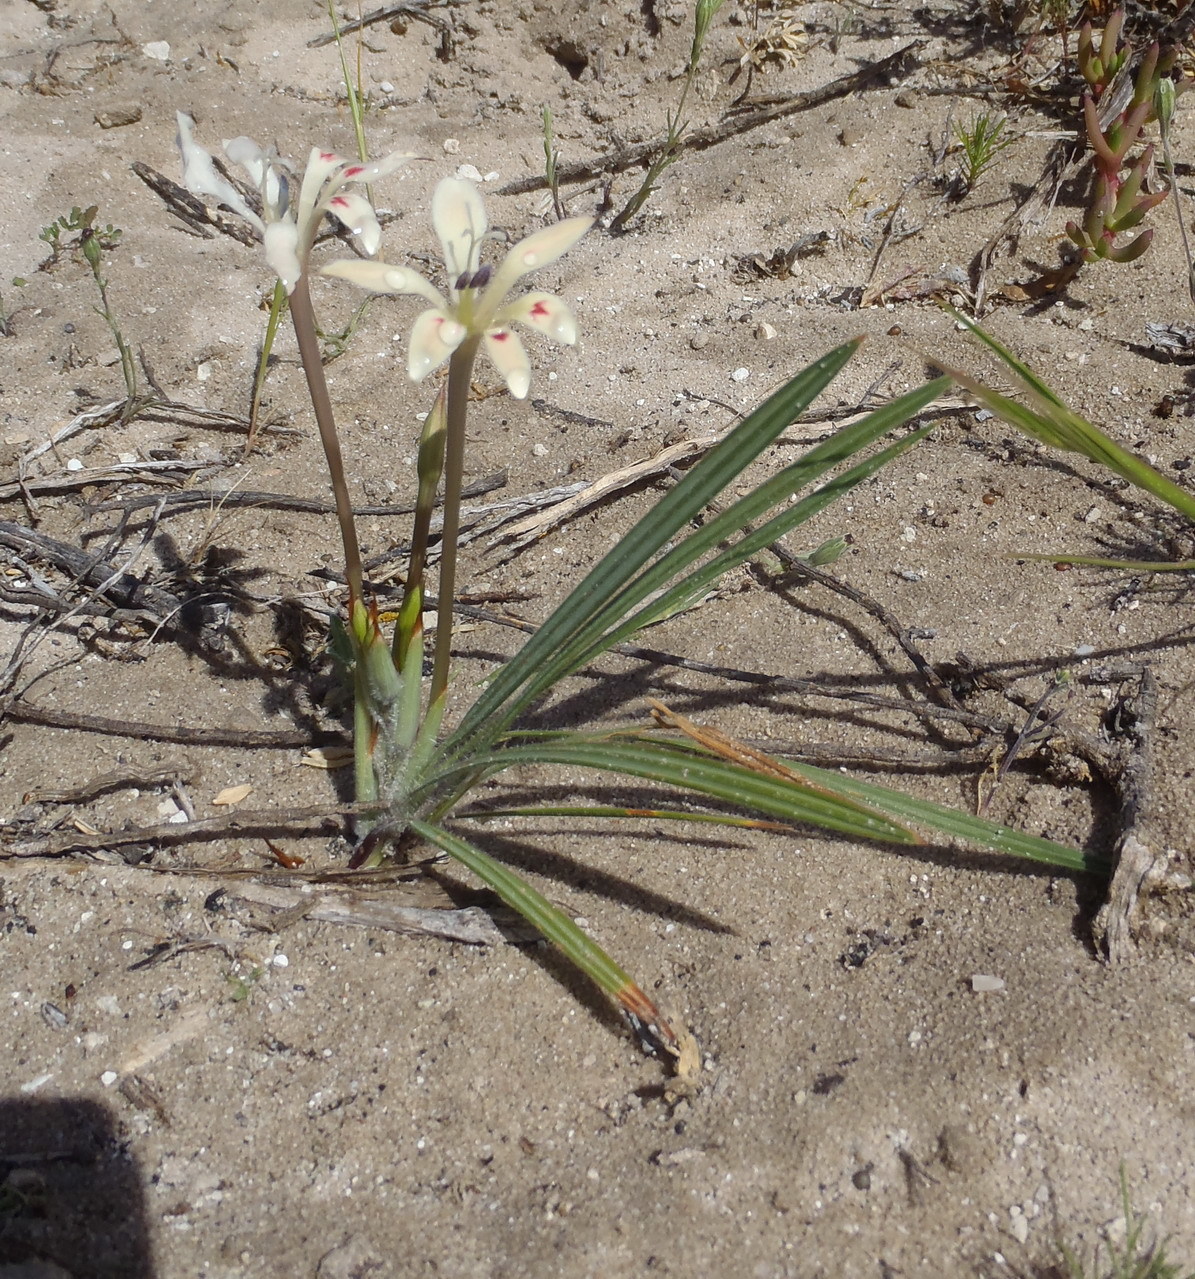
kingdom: Plantae
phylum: Tracheophyta
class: Liliopsida
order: Asparagales
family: Iridaceae
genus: Babiana
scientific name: Babiana tubulosa
